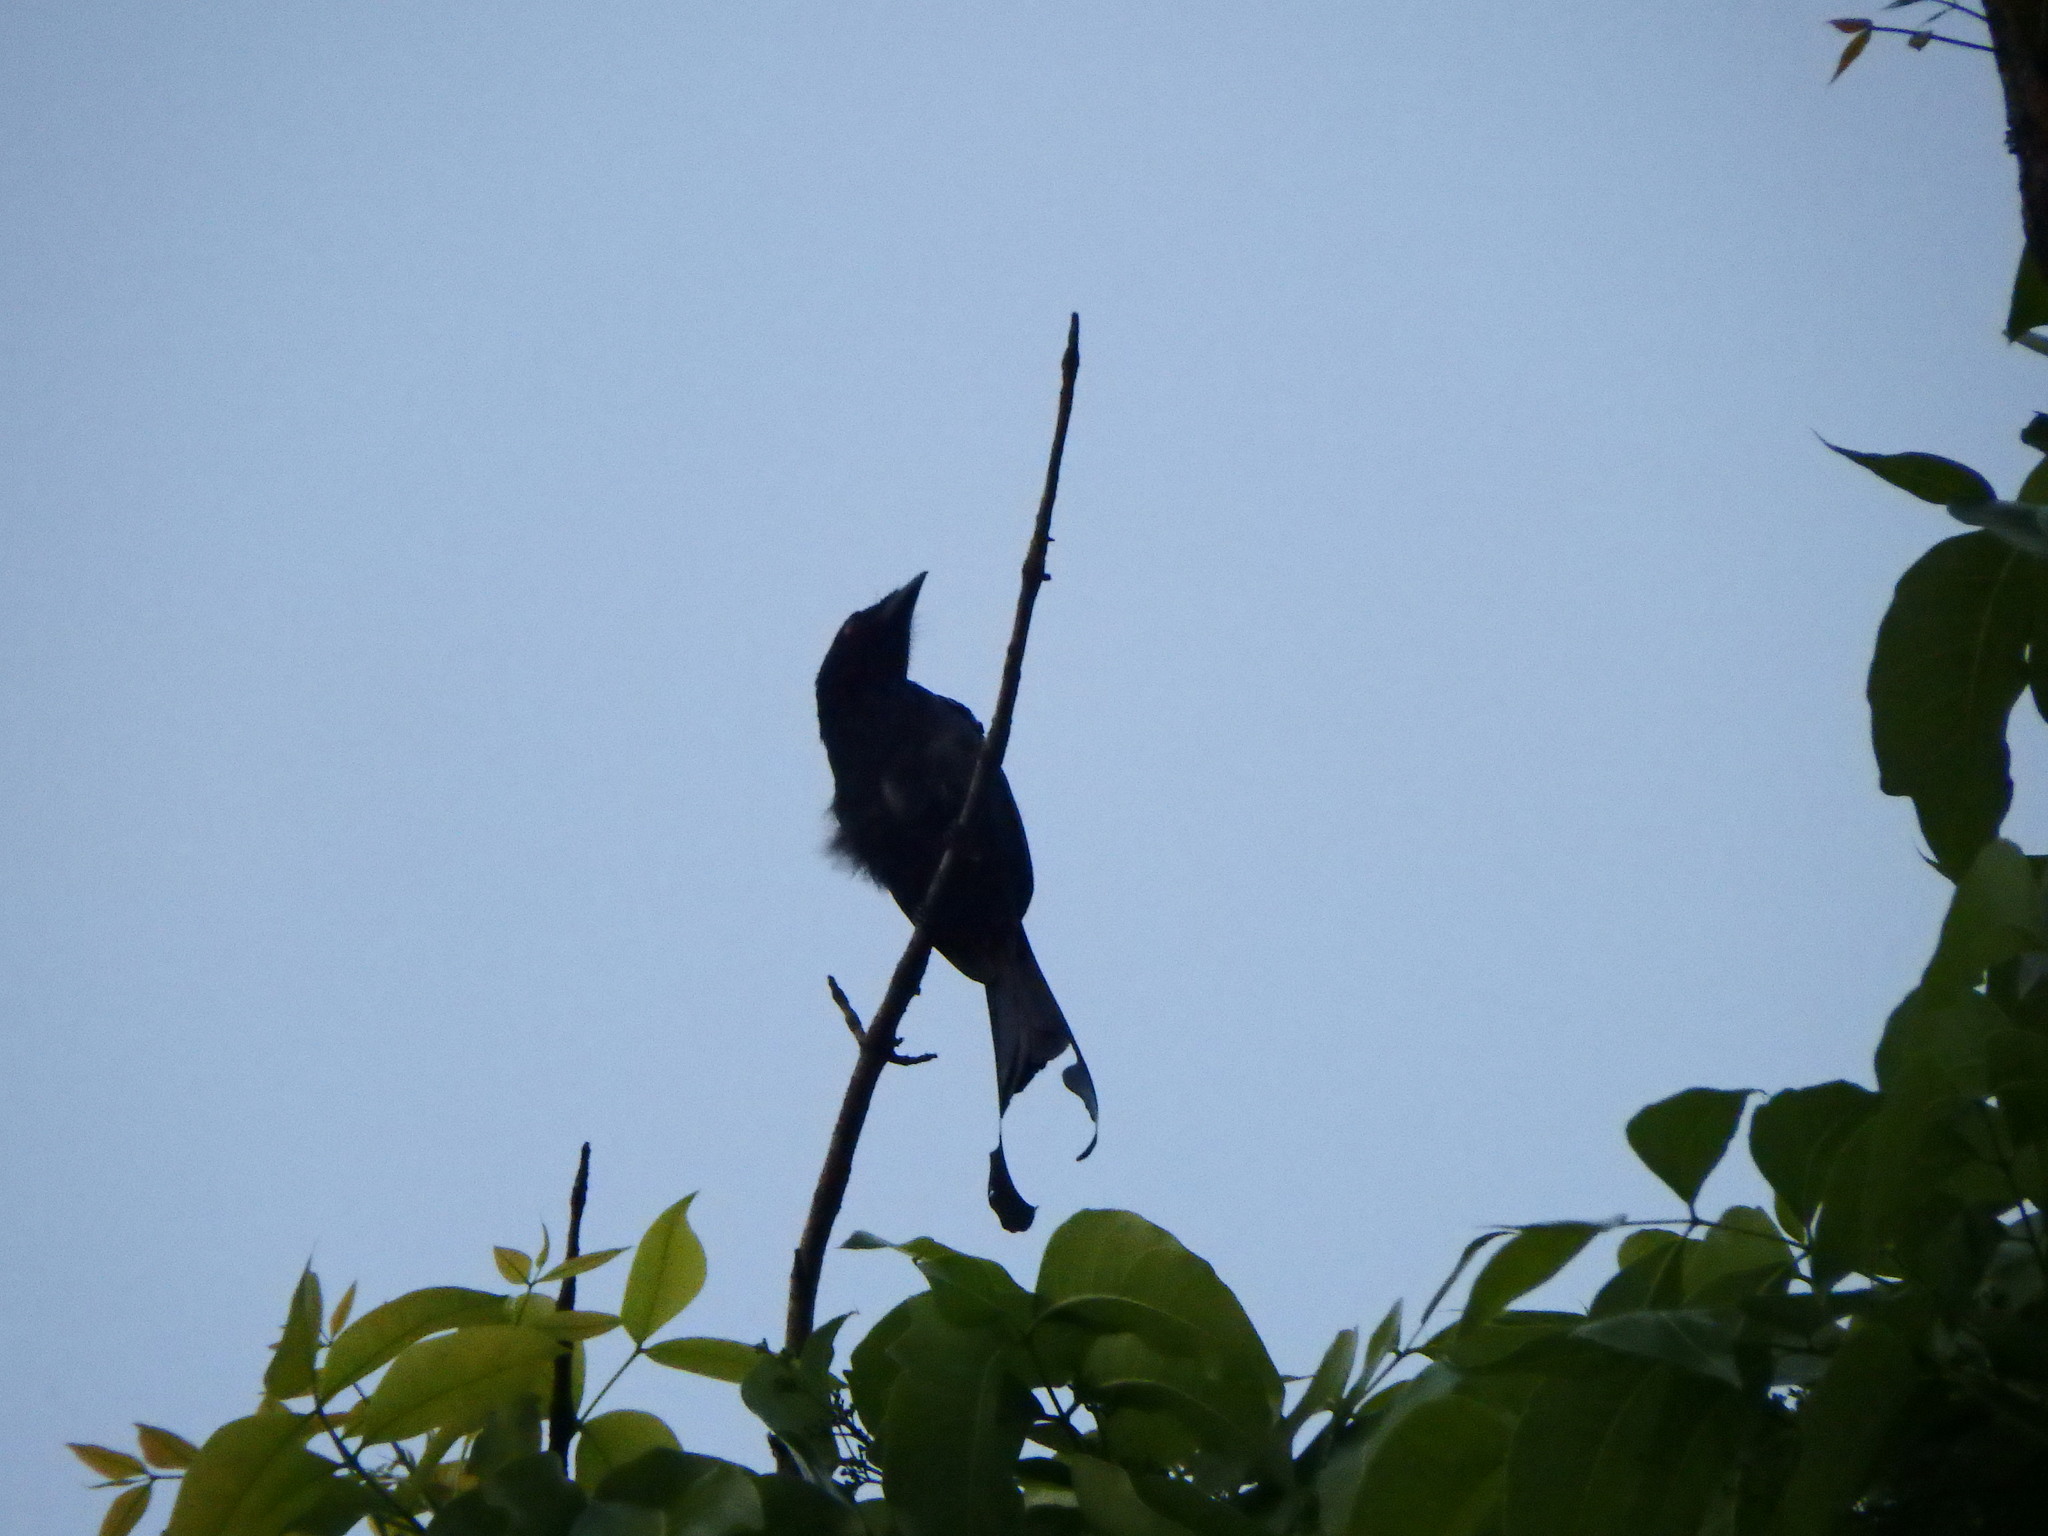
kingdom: Animalia
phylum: Chordata
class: Aves
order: Passeriformes
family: Dicruridae
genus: Dicrurus
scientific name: Dicrurus paradiseus
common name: Greater racket-tailed drongo
